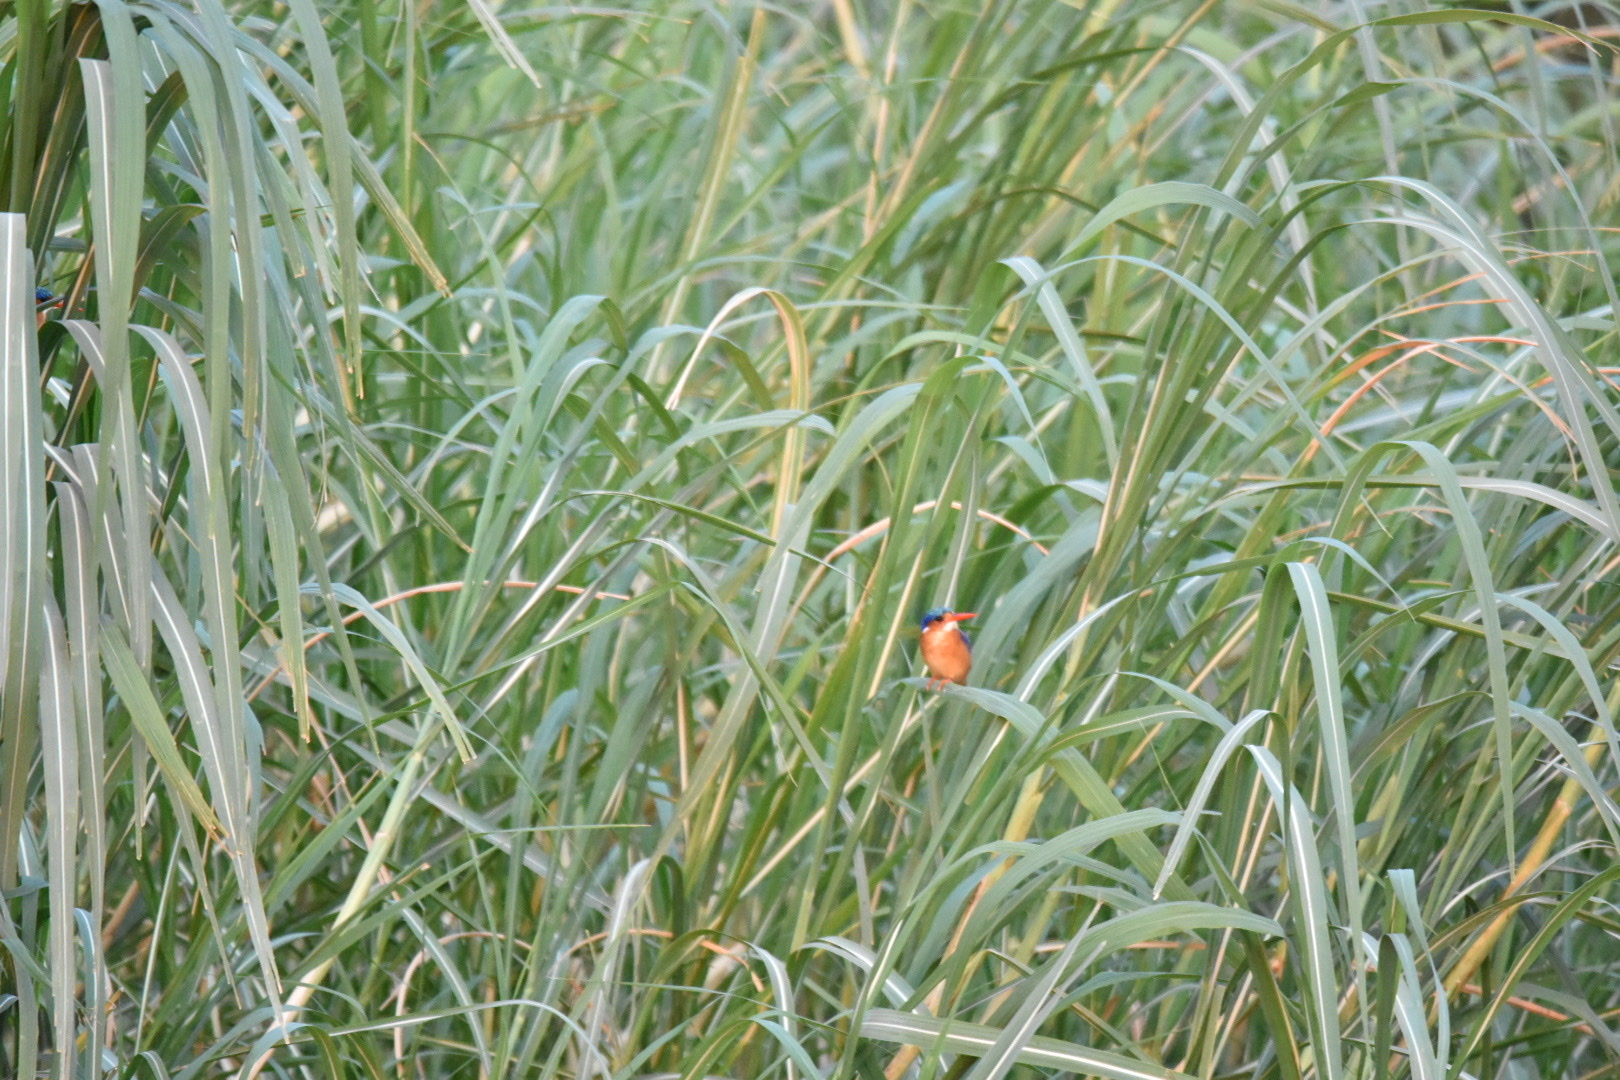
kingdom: Animalia
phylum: Chordata
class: Aves
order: Coraciiformes
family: Alcedinidae
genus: Corythornis
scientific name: Corythornis cristatus
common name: Malachite kingfisher
